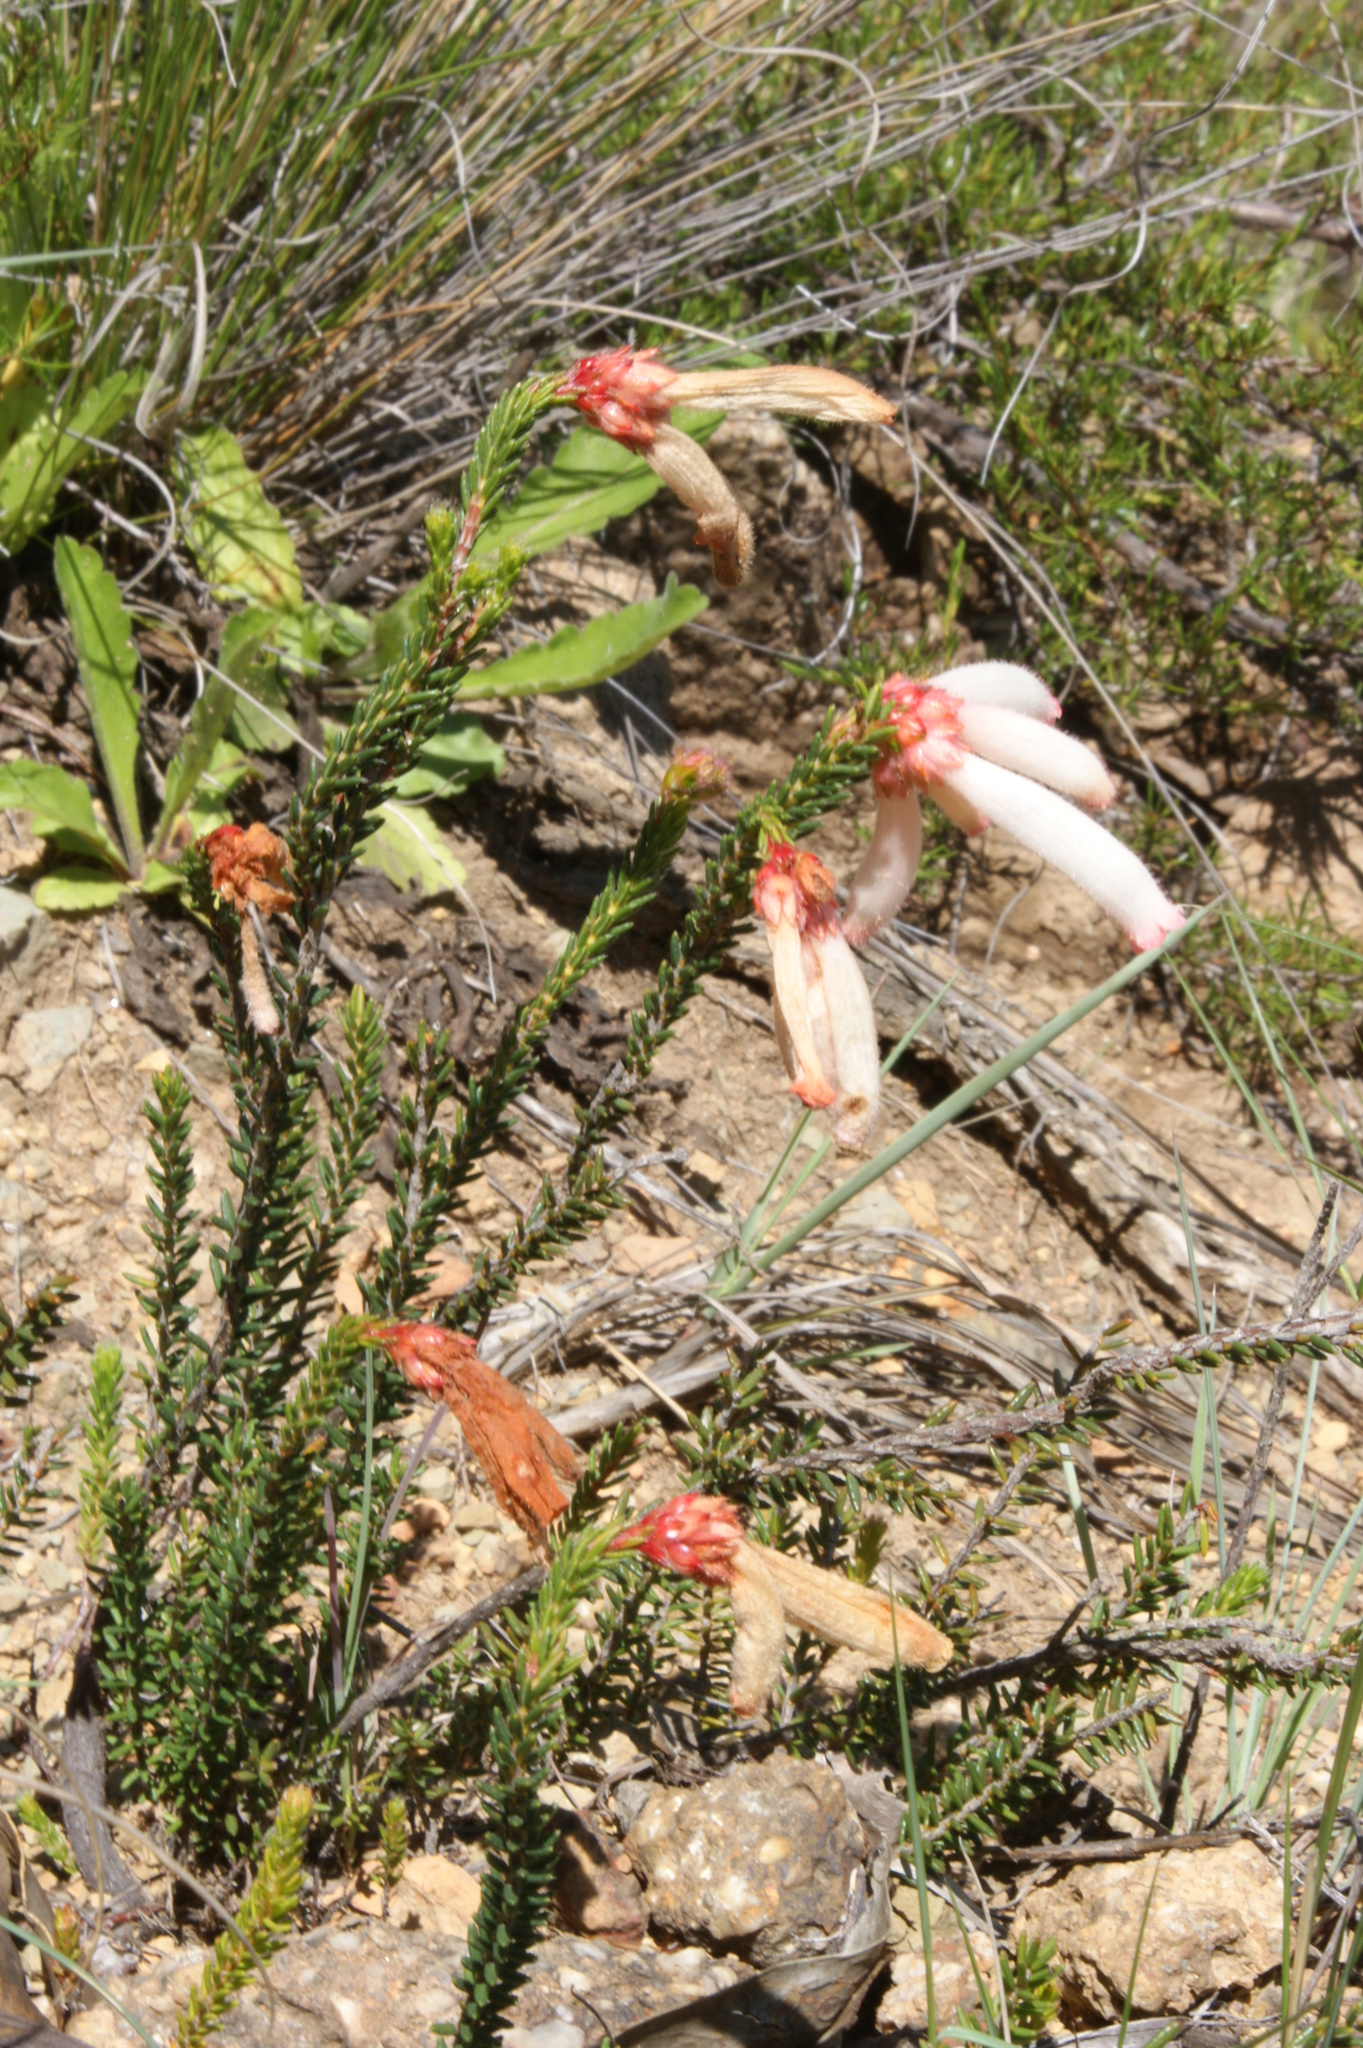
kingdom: Plantae
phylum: Tracheophyta
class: Magnoliopsida
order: Ericales
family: Ericaceae
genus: Erica
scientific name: Erica cerinthoides
